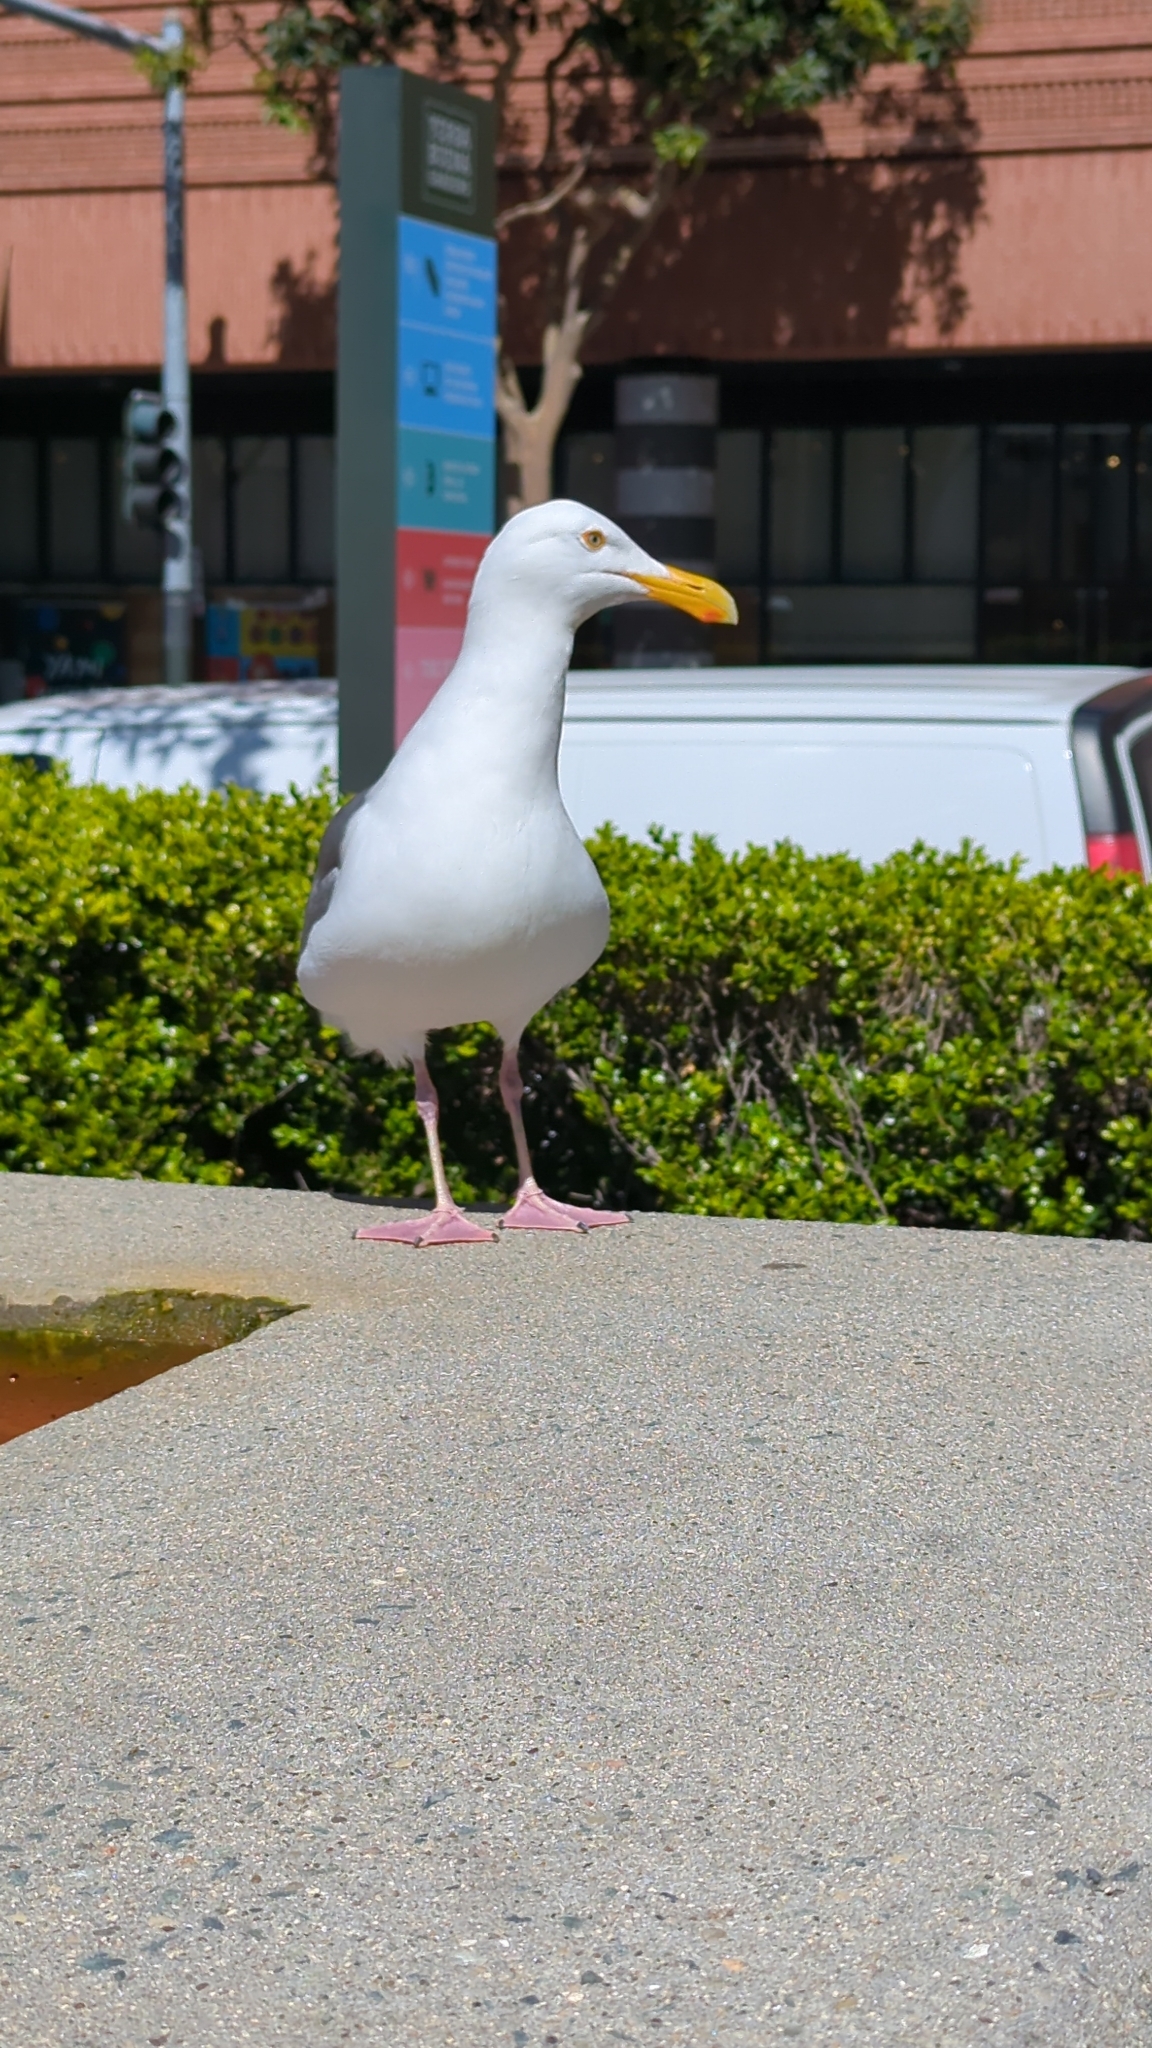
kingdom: Animalia
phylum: Chordata
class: Aves
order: Charadriiformes
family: Laridae
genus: Larus
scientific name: Larus occidentalis
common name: Western gull
